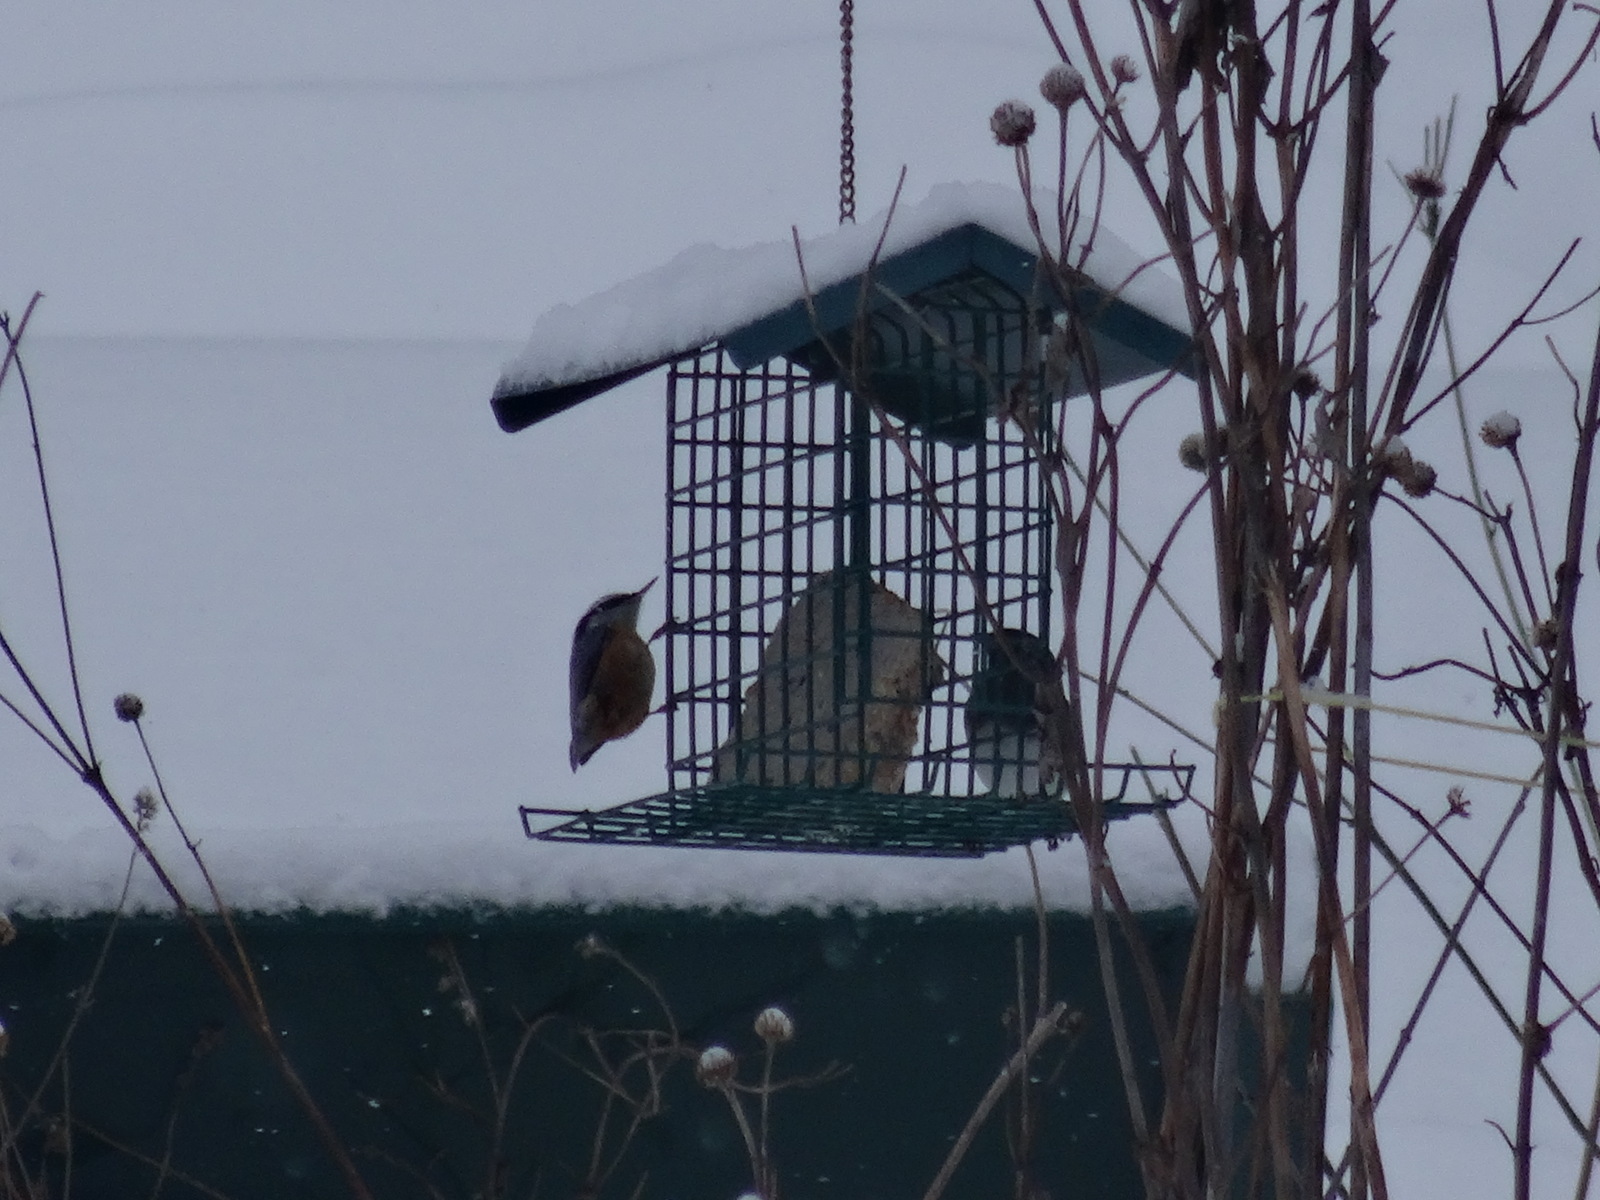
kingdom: Animalia
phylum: Chordata
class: Aves
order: Passeriformes
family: Sittidae
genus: Sitta
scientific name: Sitta canadensis
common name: Red-breasted nuthatch
